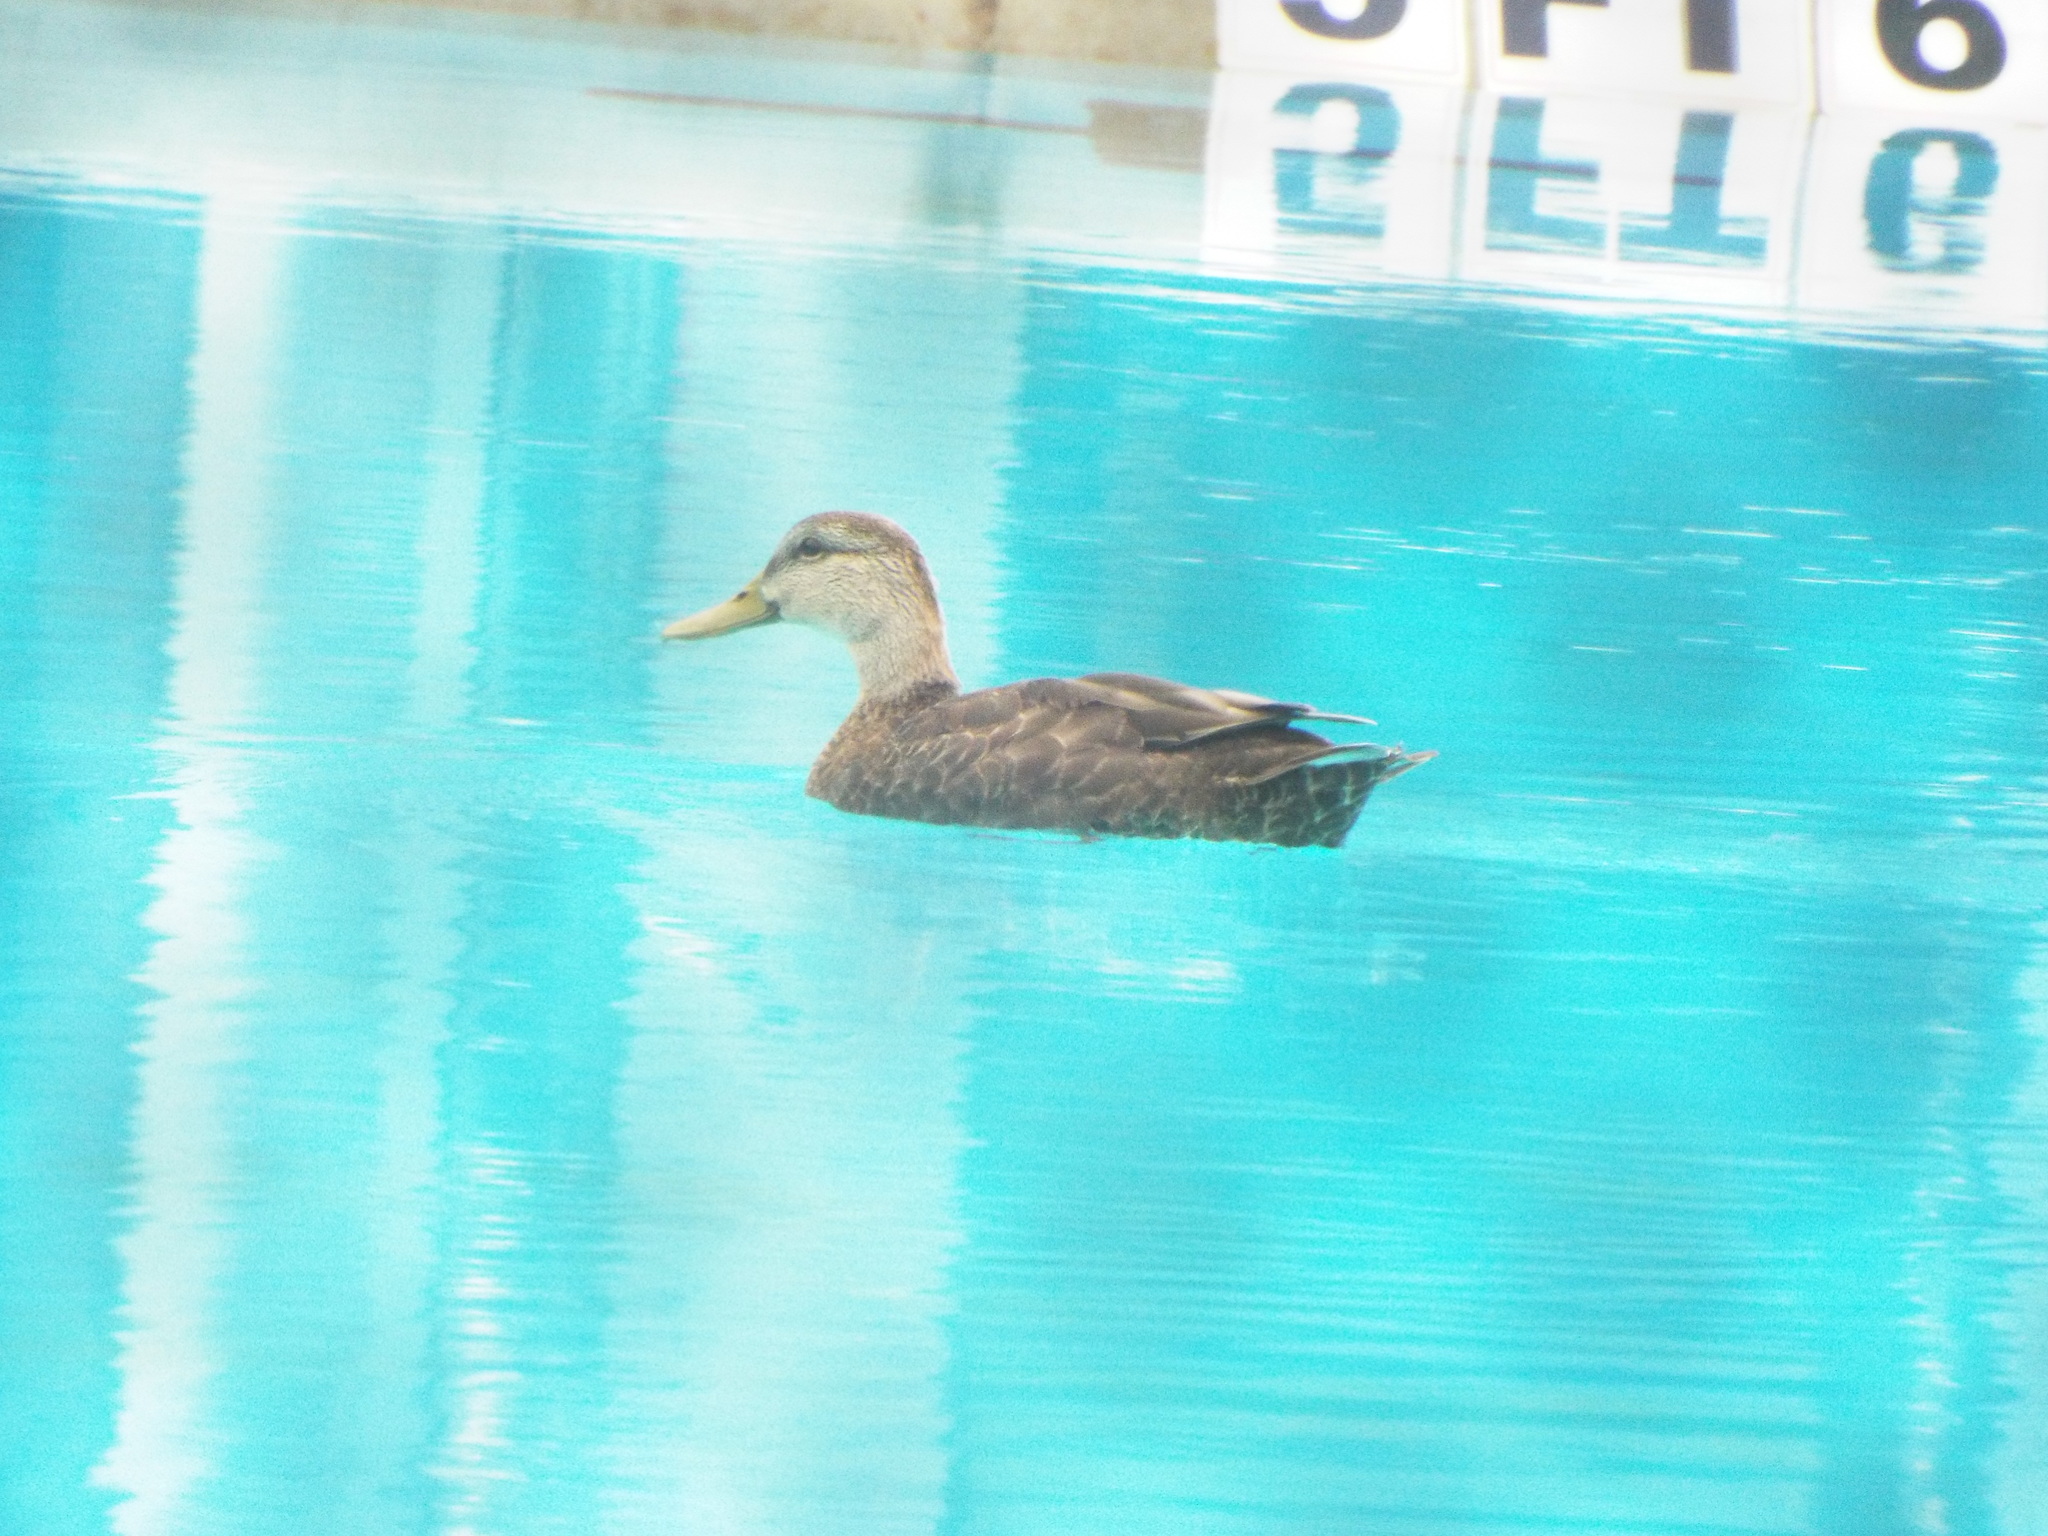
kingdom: Animalia
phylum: Chordata
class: Aves
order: Anseriformes
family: Anatidae
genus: Anas
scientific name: Anas rubripes
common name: American black duck
